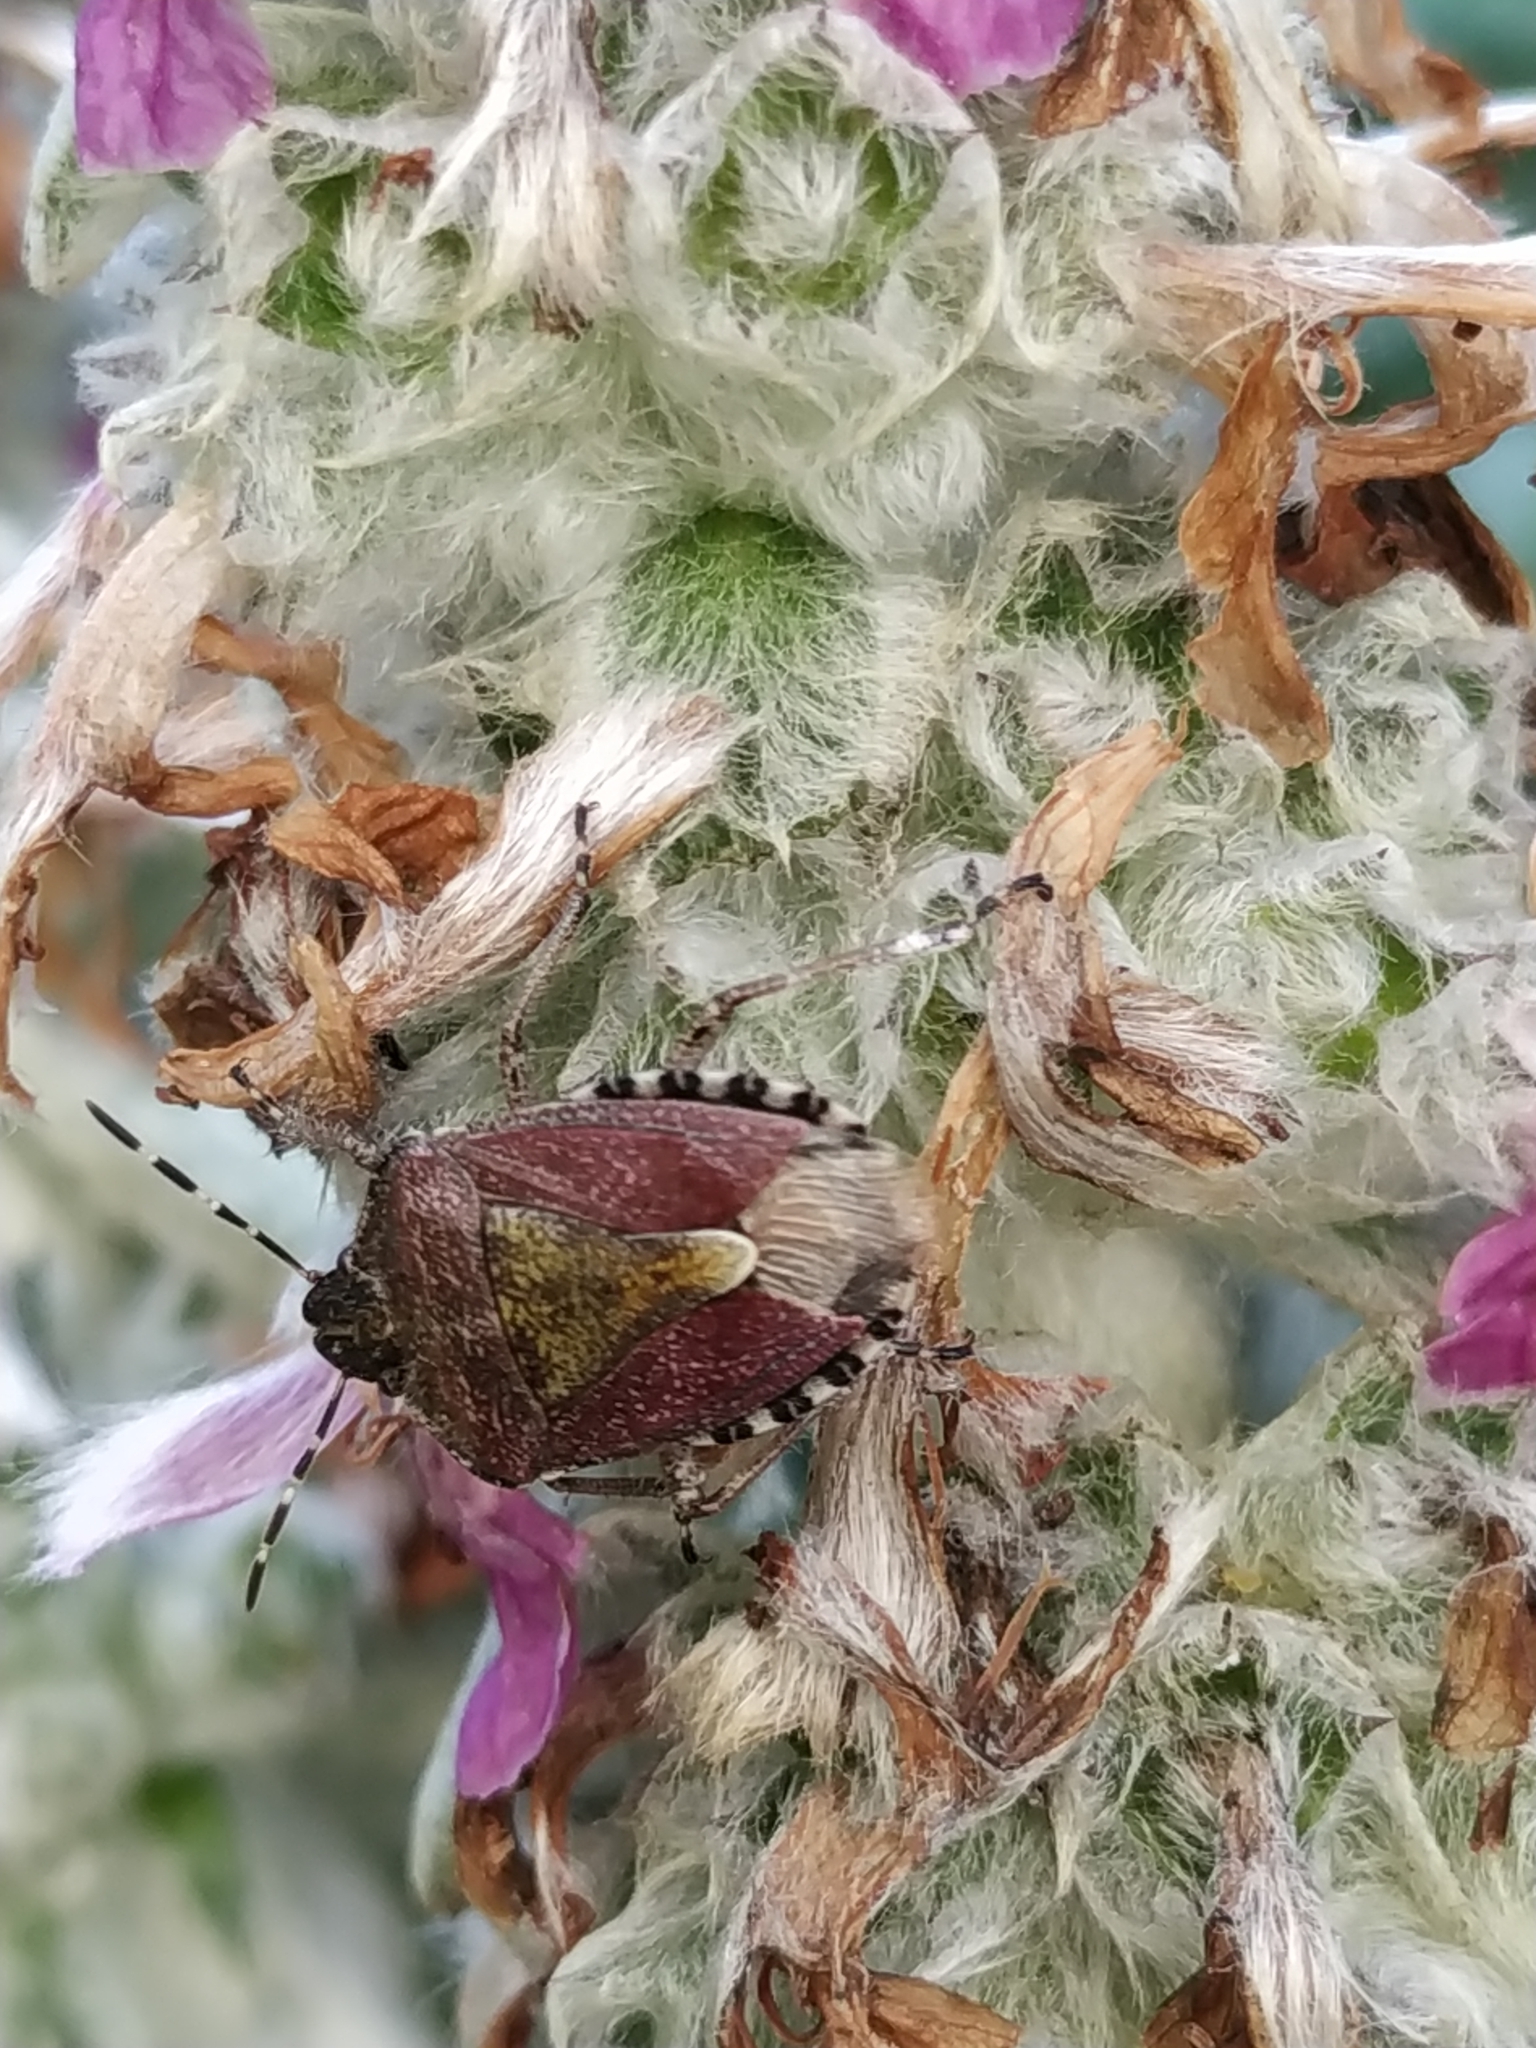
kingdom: Animalia
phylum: Arthropoda
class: Insecta
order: Hemiptera
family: Pentatomidae
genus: Dolycoris
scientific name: Dolycoris baccarum
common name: Sloe bug
